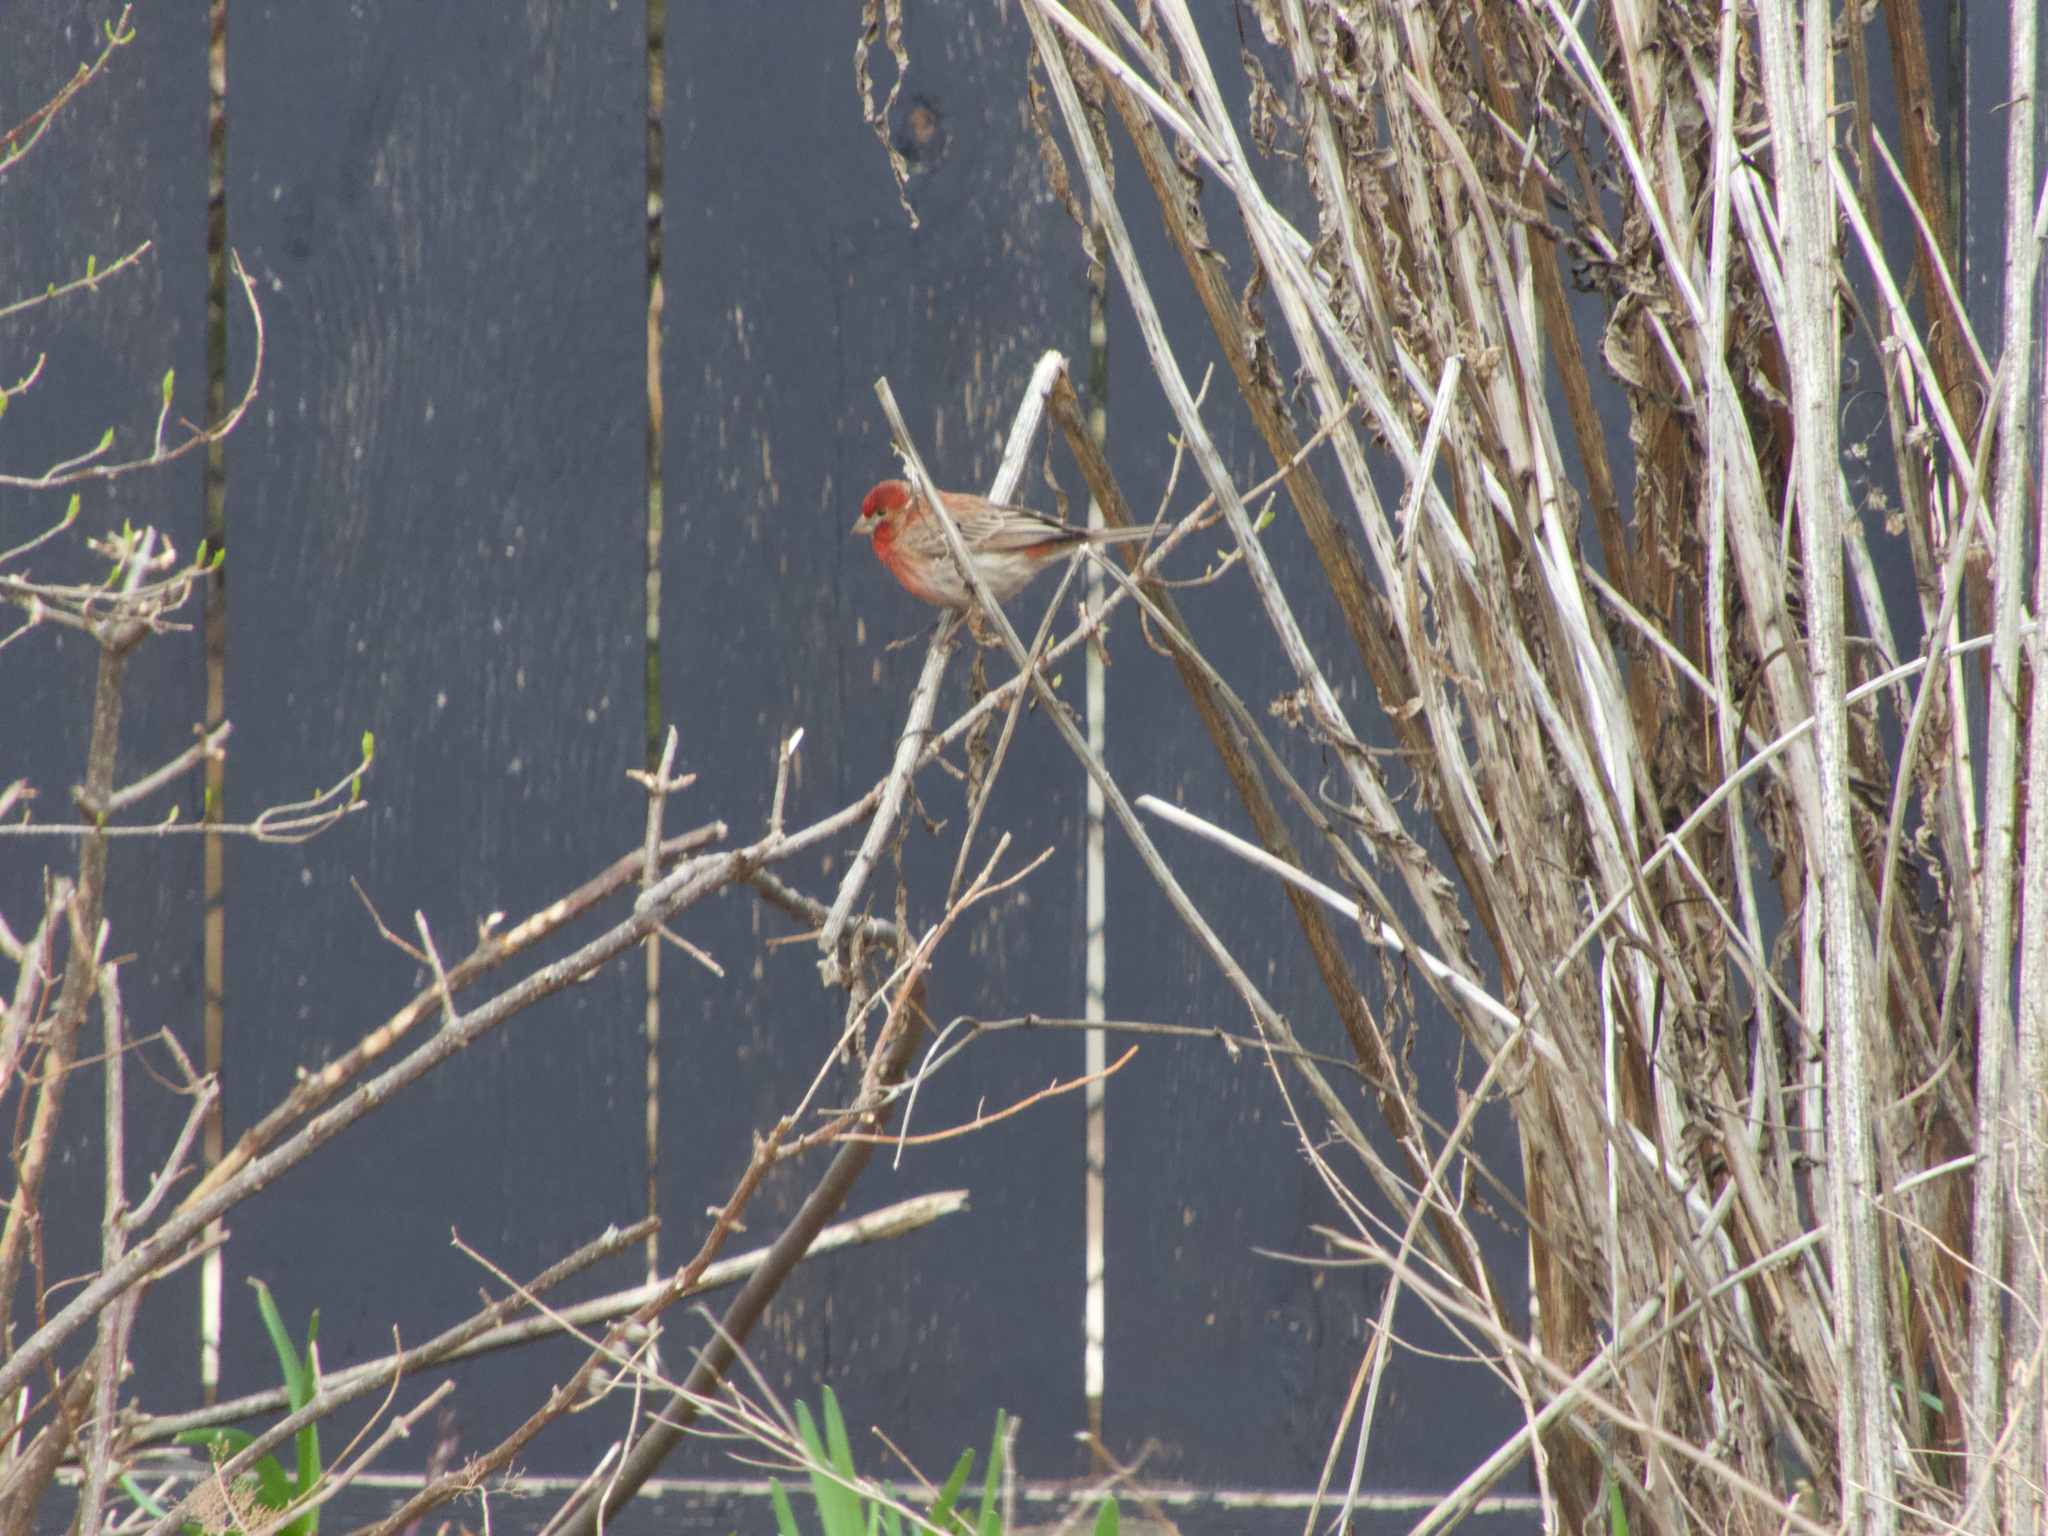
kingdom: Animalia
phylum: Chordata
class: Aves
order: Passeriformes
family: Fringillidae
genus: Haemorhous
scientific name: Haemorhous mexicanus
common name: House finch
